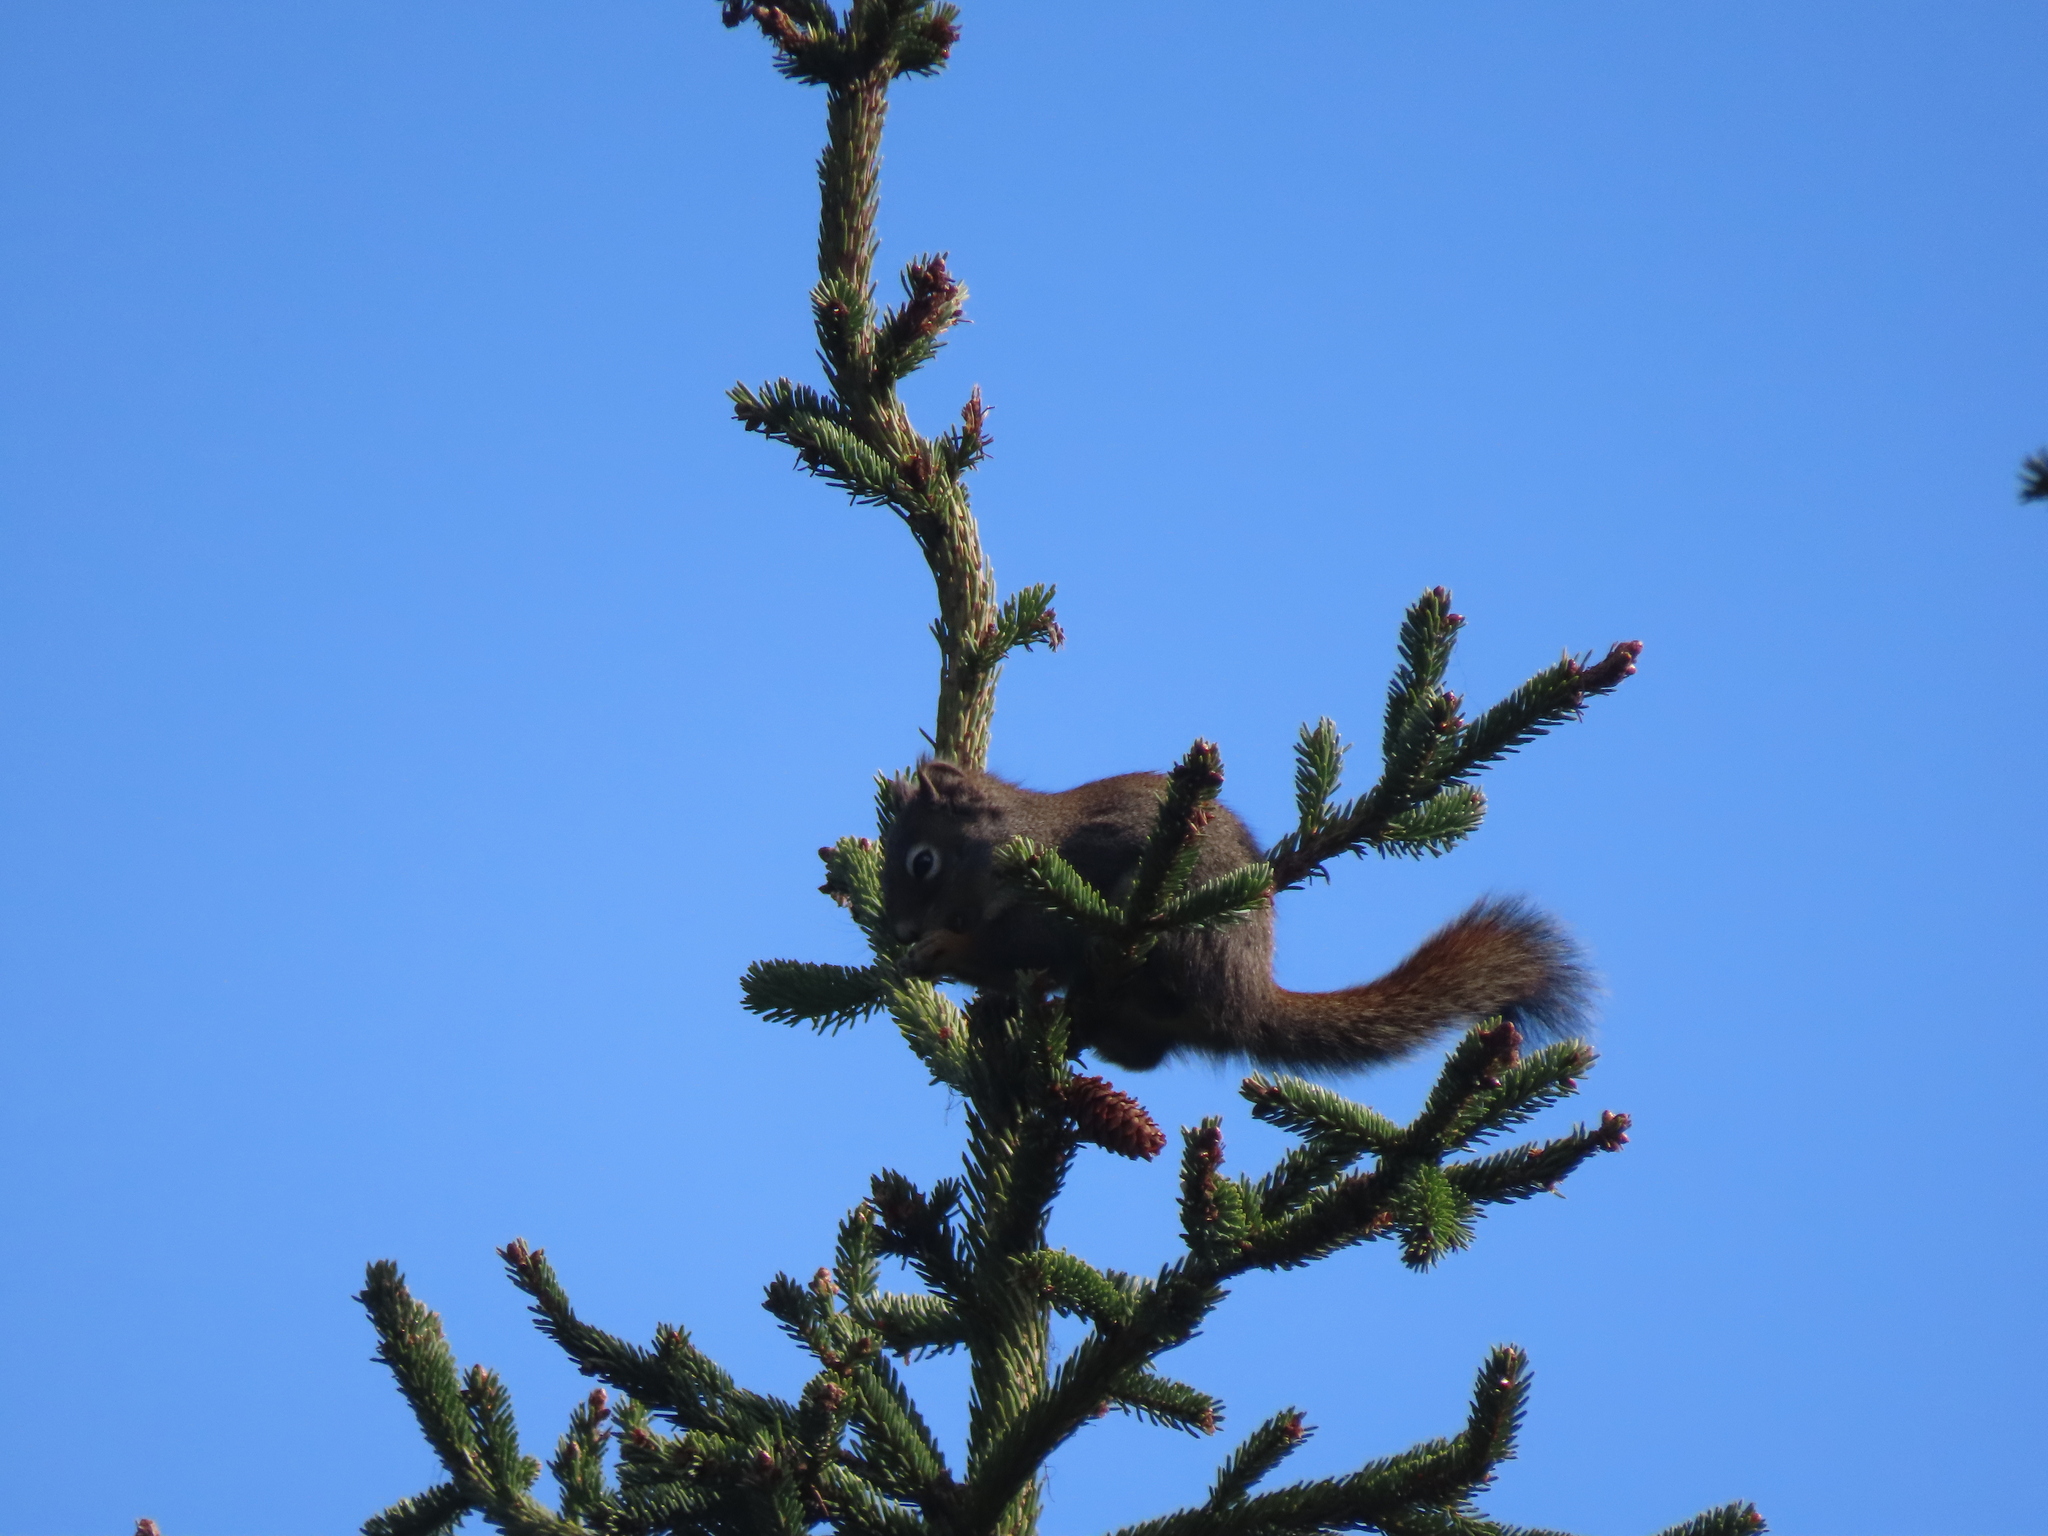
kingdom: Animalia
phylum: Chordata
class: Mammalia
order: Rodentia
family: Sciuridae
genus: Tamiasciurus
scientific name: Tamiasciurus hudsonicus
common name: Red squirrel
